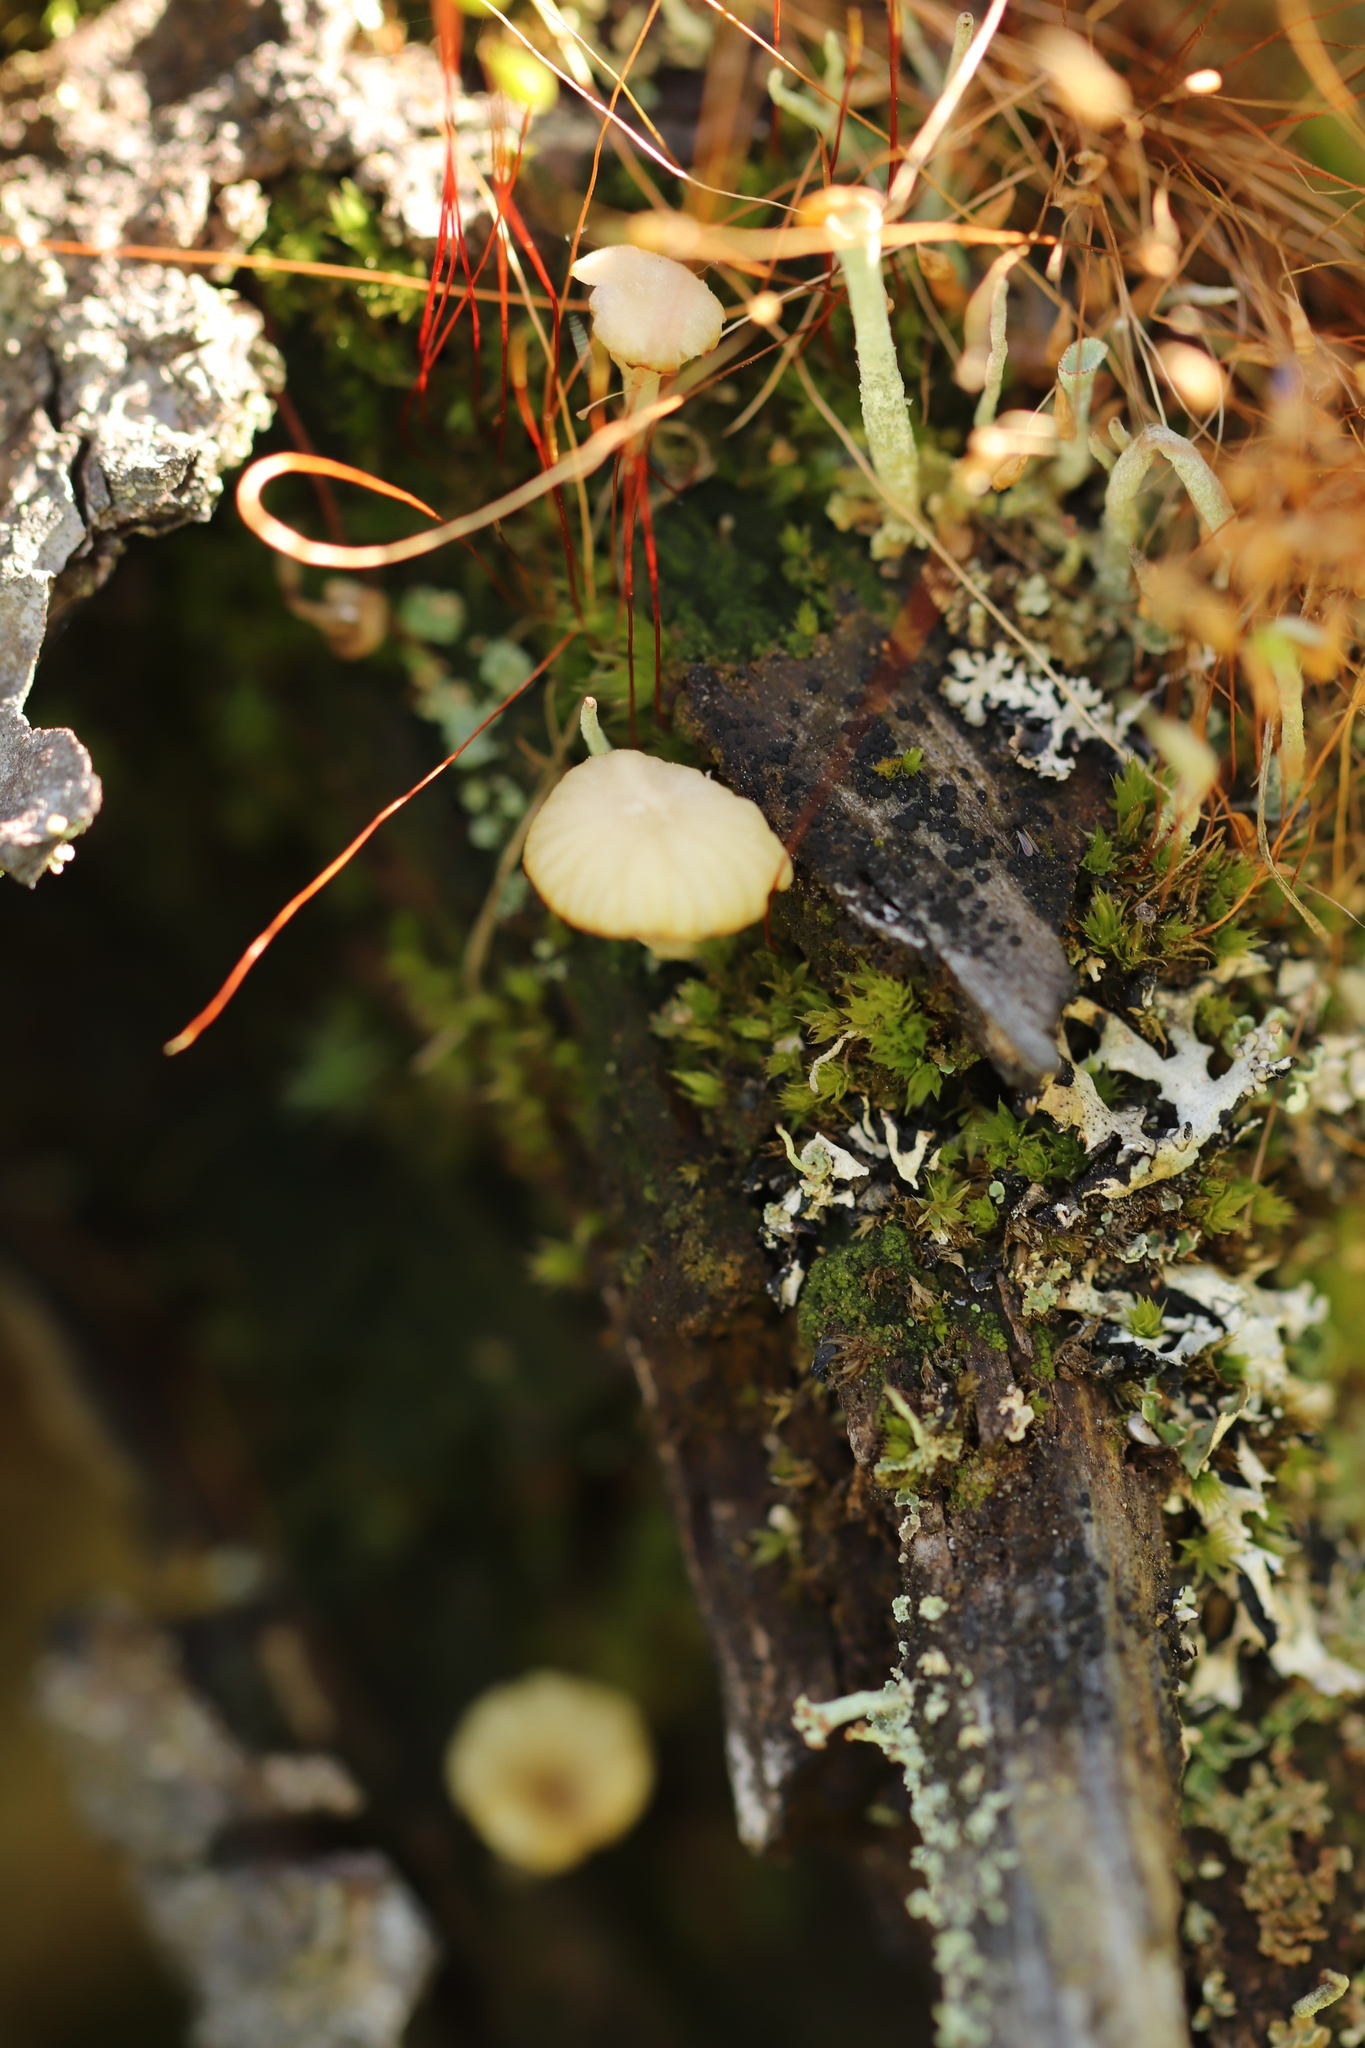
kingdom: Fungi
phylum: Basidiomycota
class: Agaricomycetes
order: Agaricales
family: Hygrophoraceae
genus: Lichenomphalia
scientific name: Lichenomphalia
